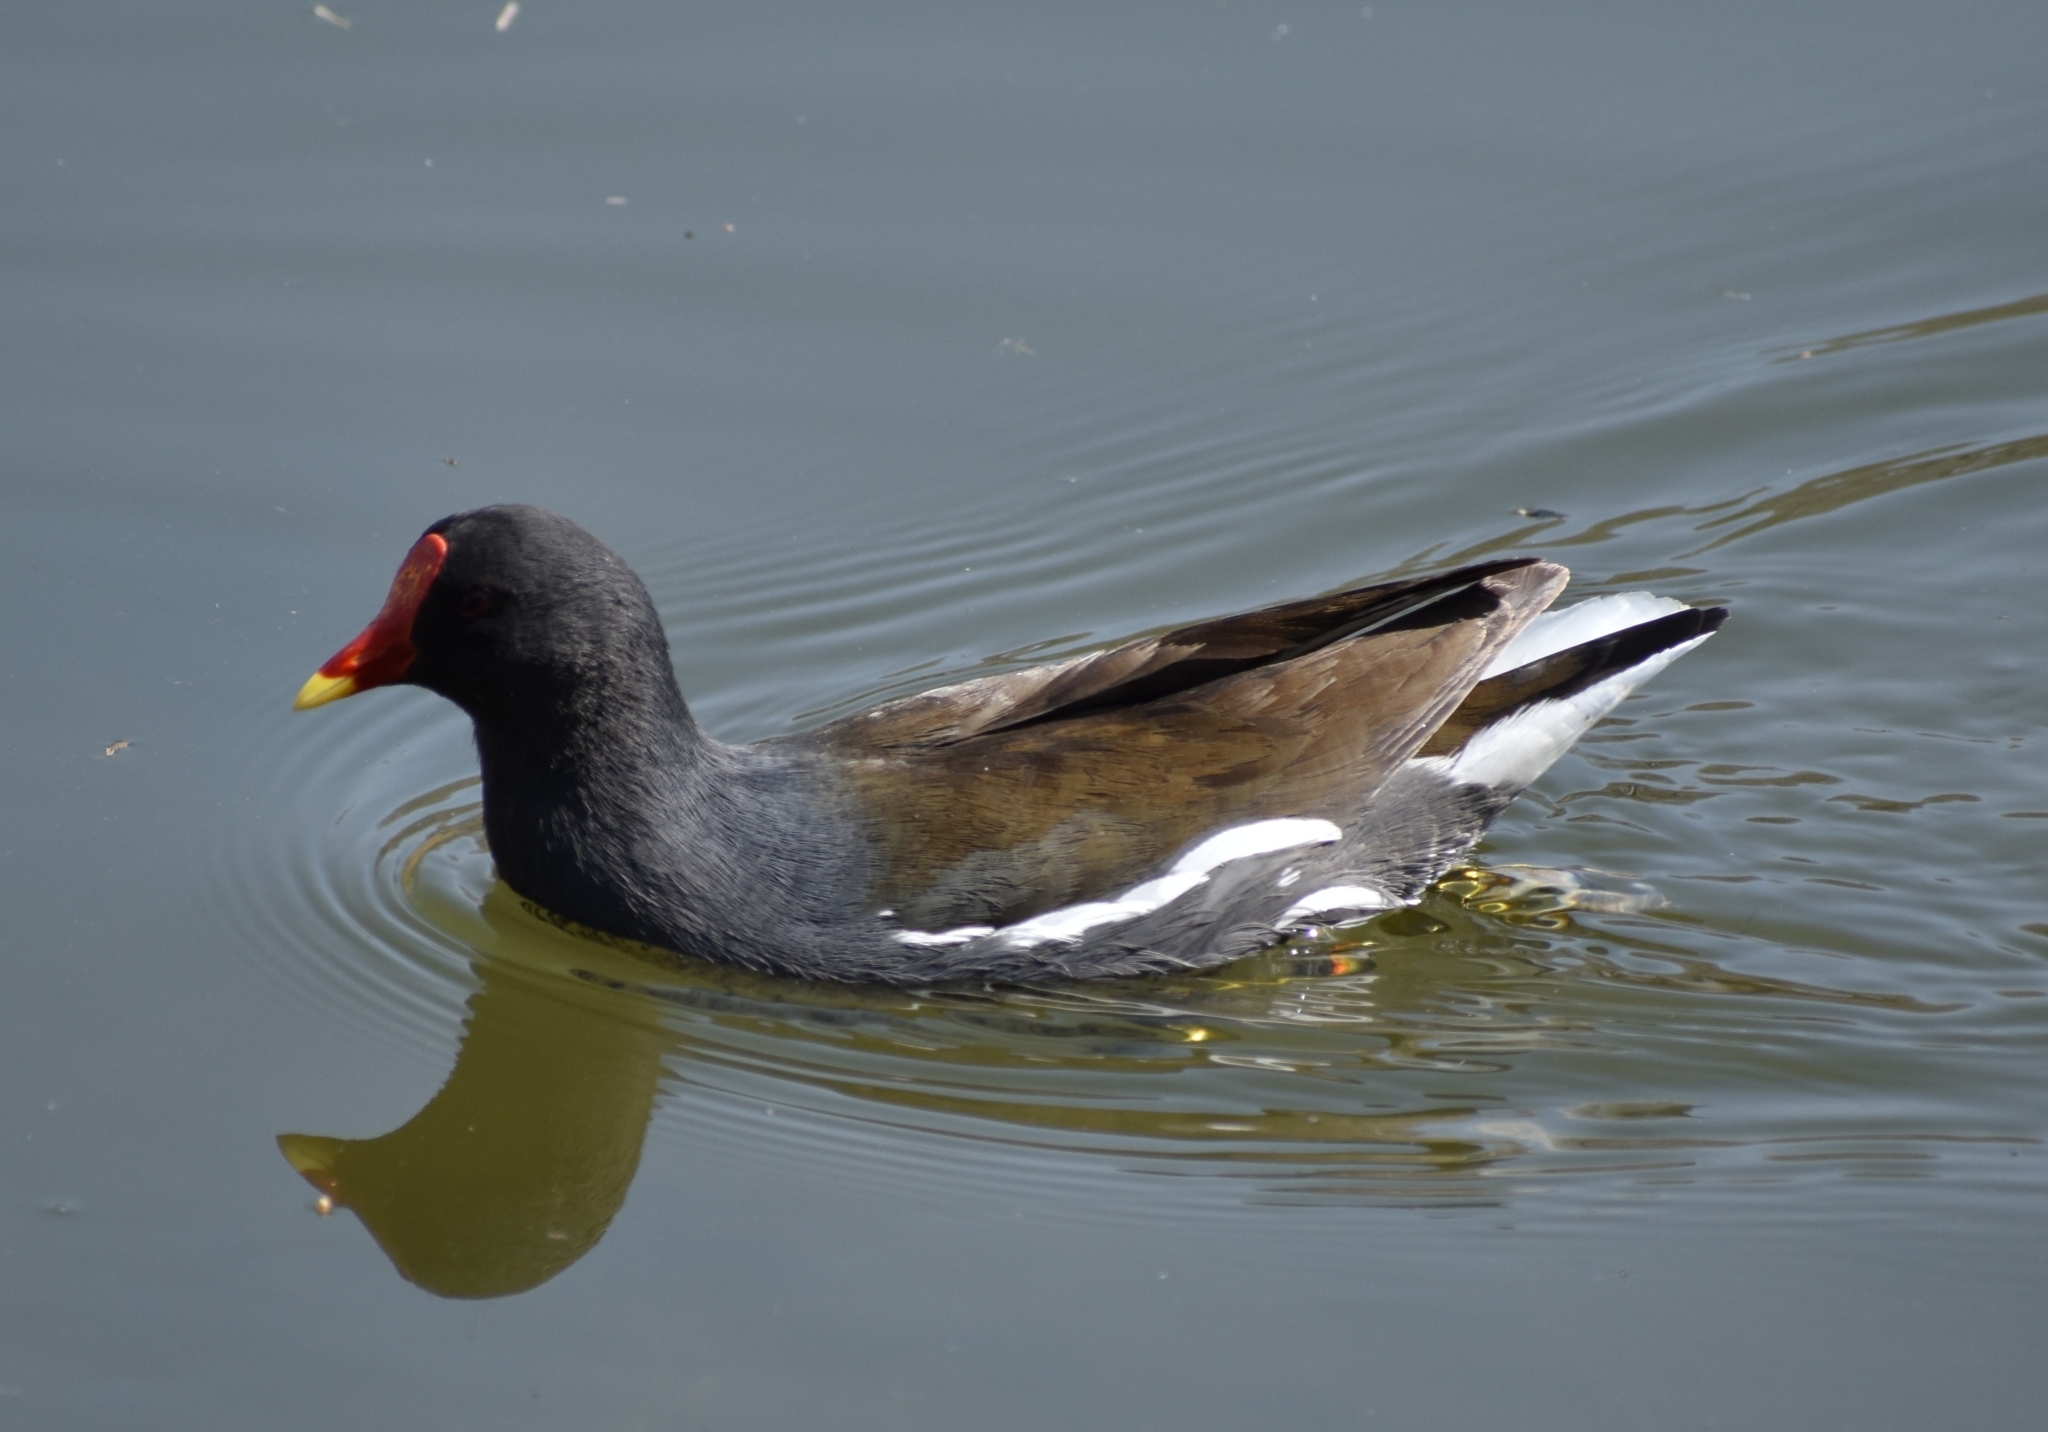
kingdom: Animalia
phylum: Chordata
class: Aves
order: Gruiformes
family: Rallidae
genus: Gallinula
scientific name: Gallinula chloropus
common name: Common moorhen
